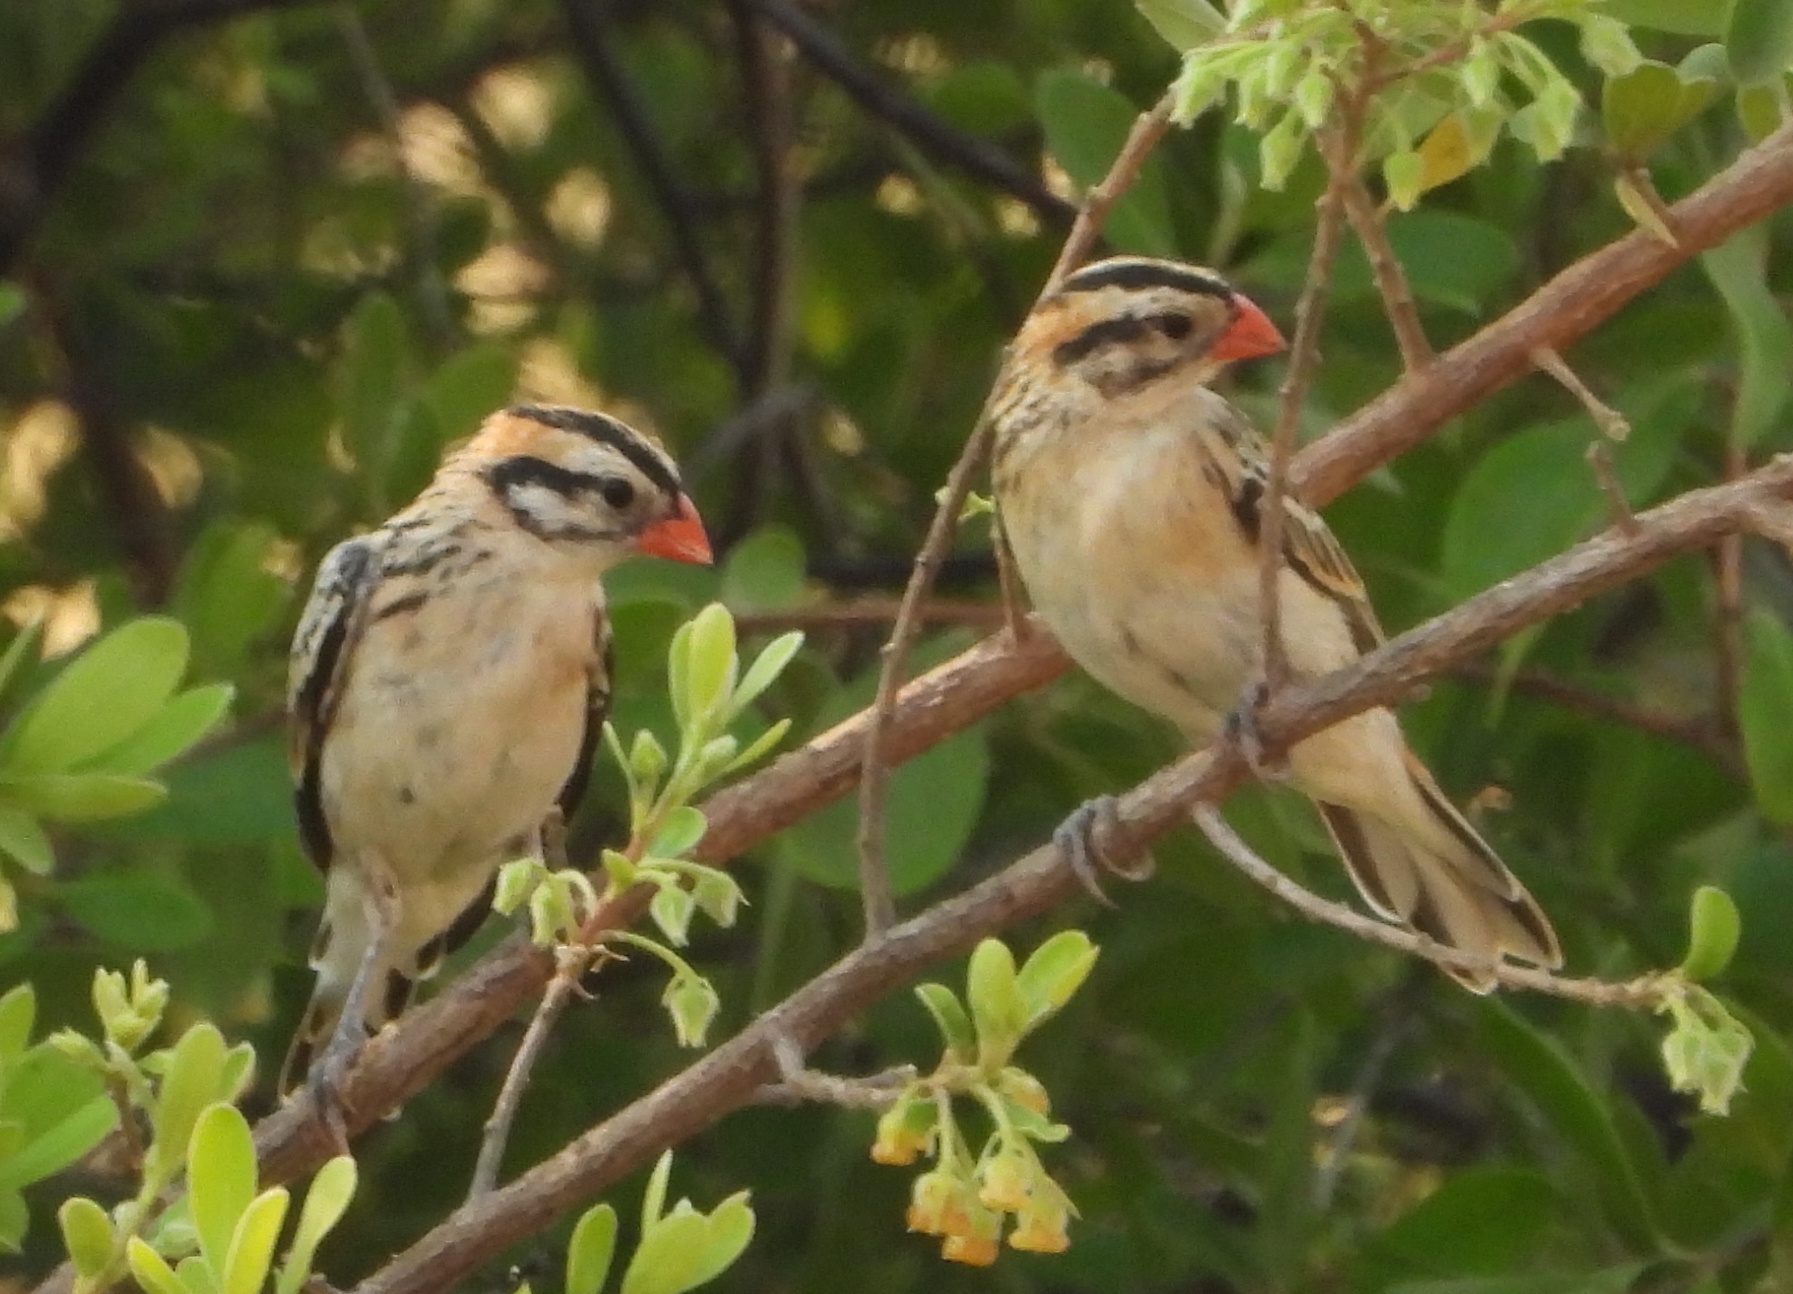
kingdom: Animalia
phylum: Chordata
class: Aves
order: Passeriformes
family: Viduidae
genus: Vidua
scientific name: Vidua macroura
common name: Pin-tailed whydah
